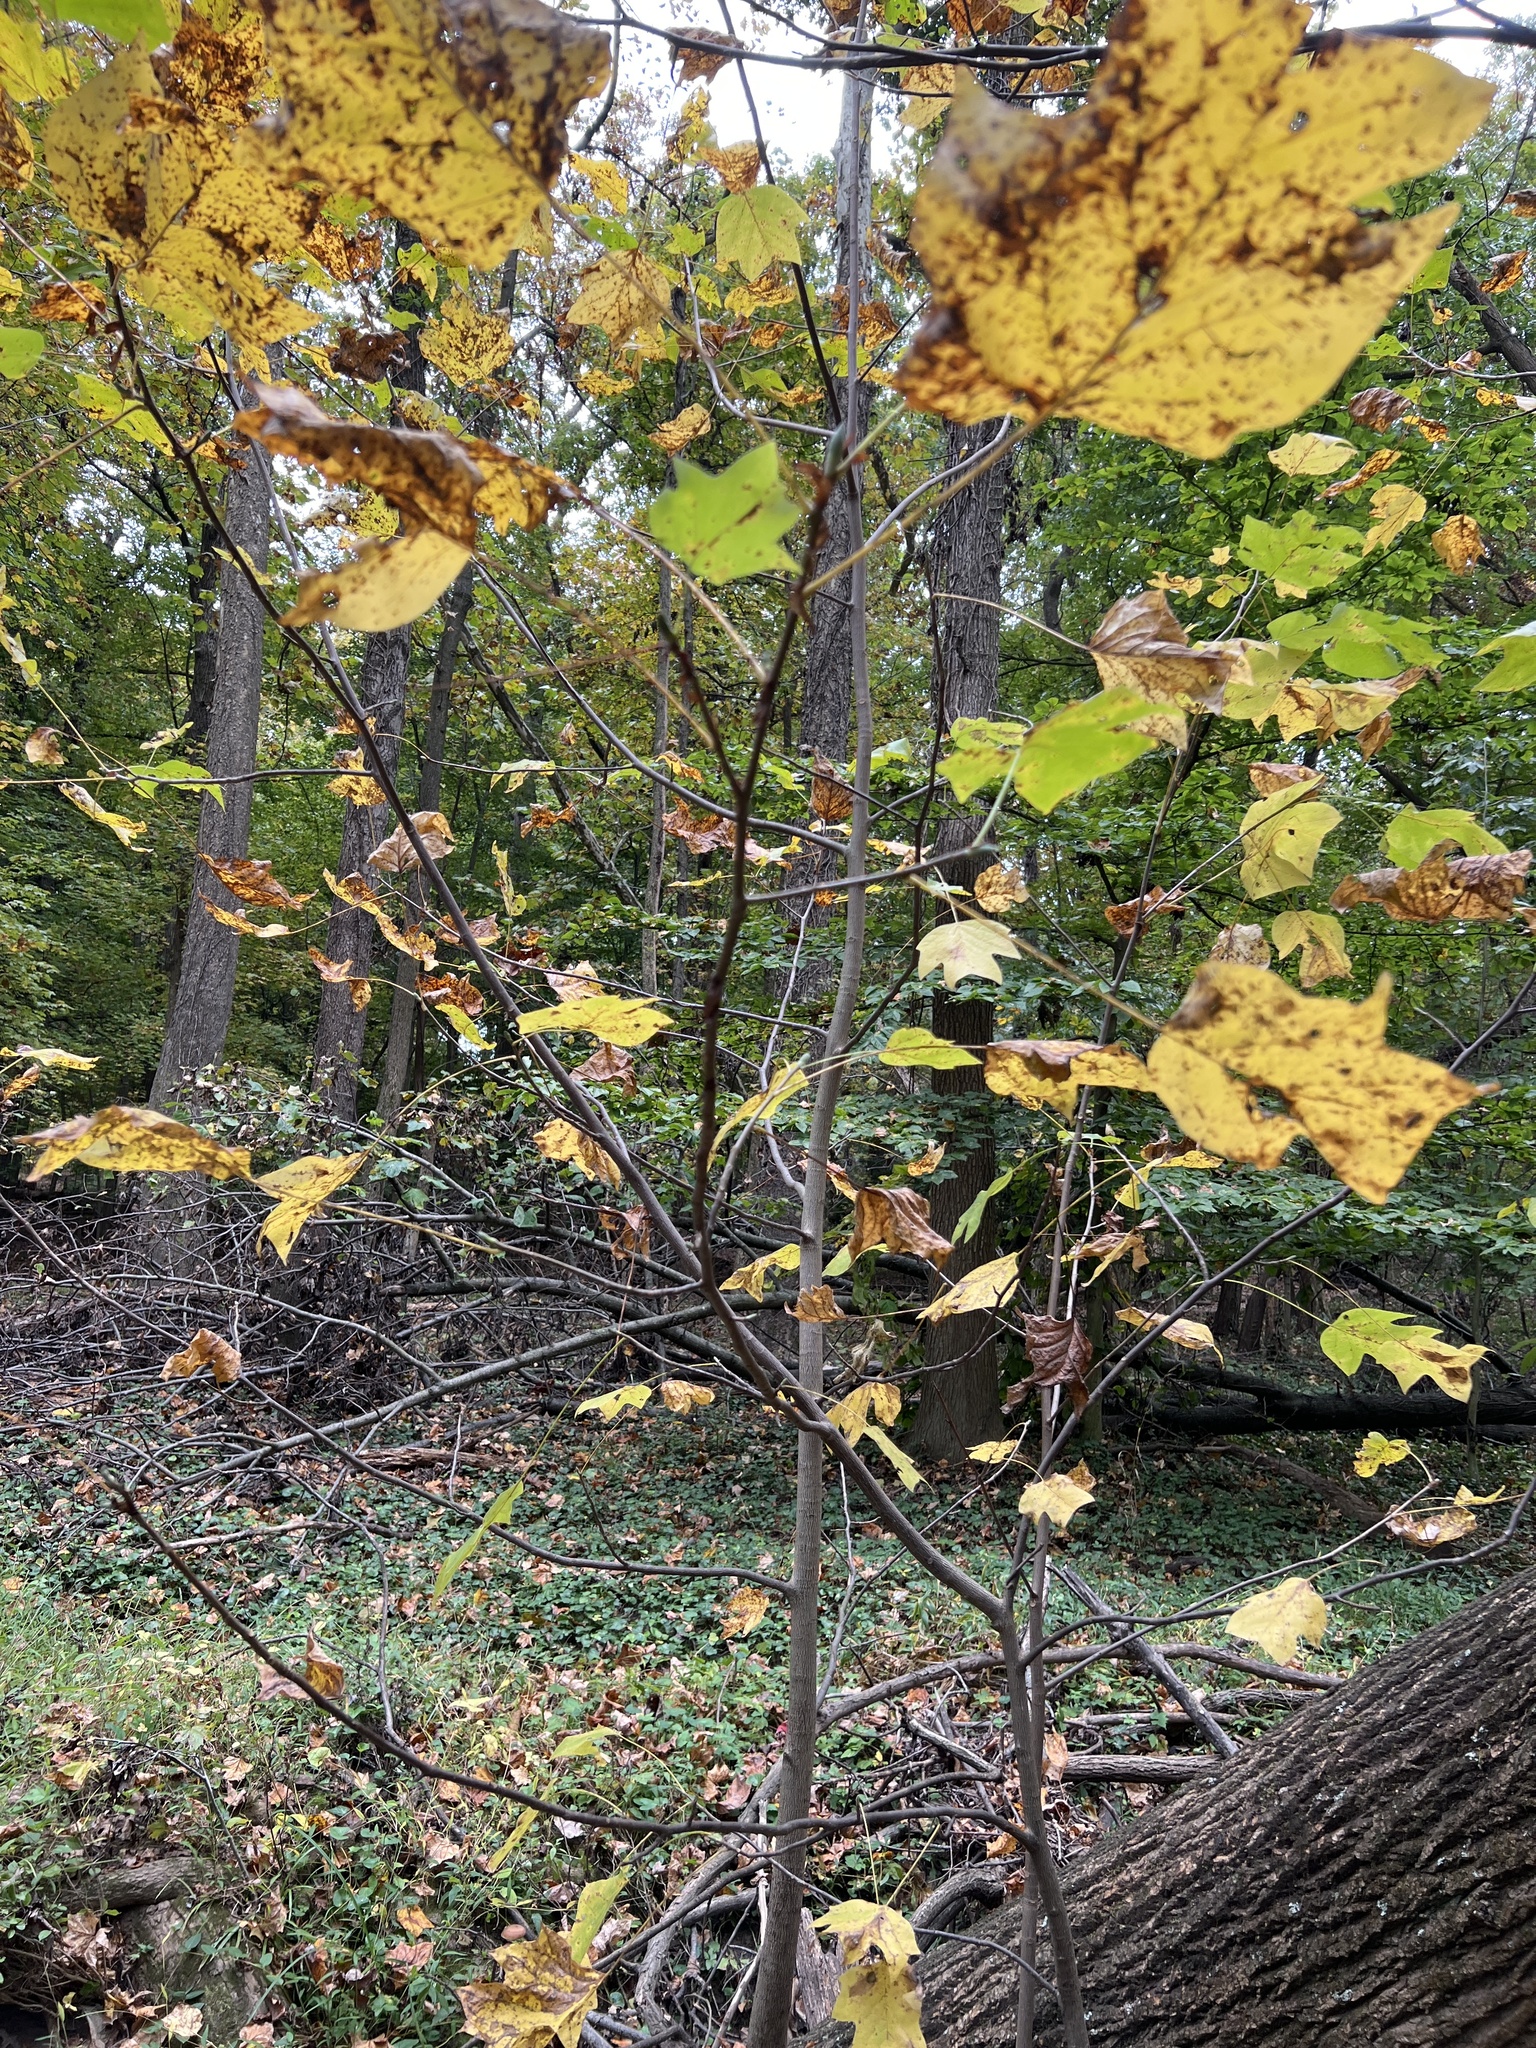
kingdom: Plantae
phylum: Tracheophyta
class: Magnoliopsida
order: Magnoliales
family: Magnoliaceae
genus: Liriodendron
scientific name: Liriodendron tulipifera
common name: Tulip tree
